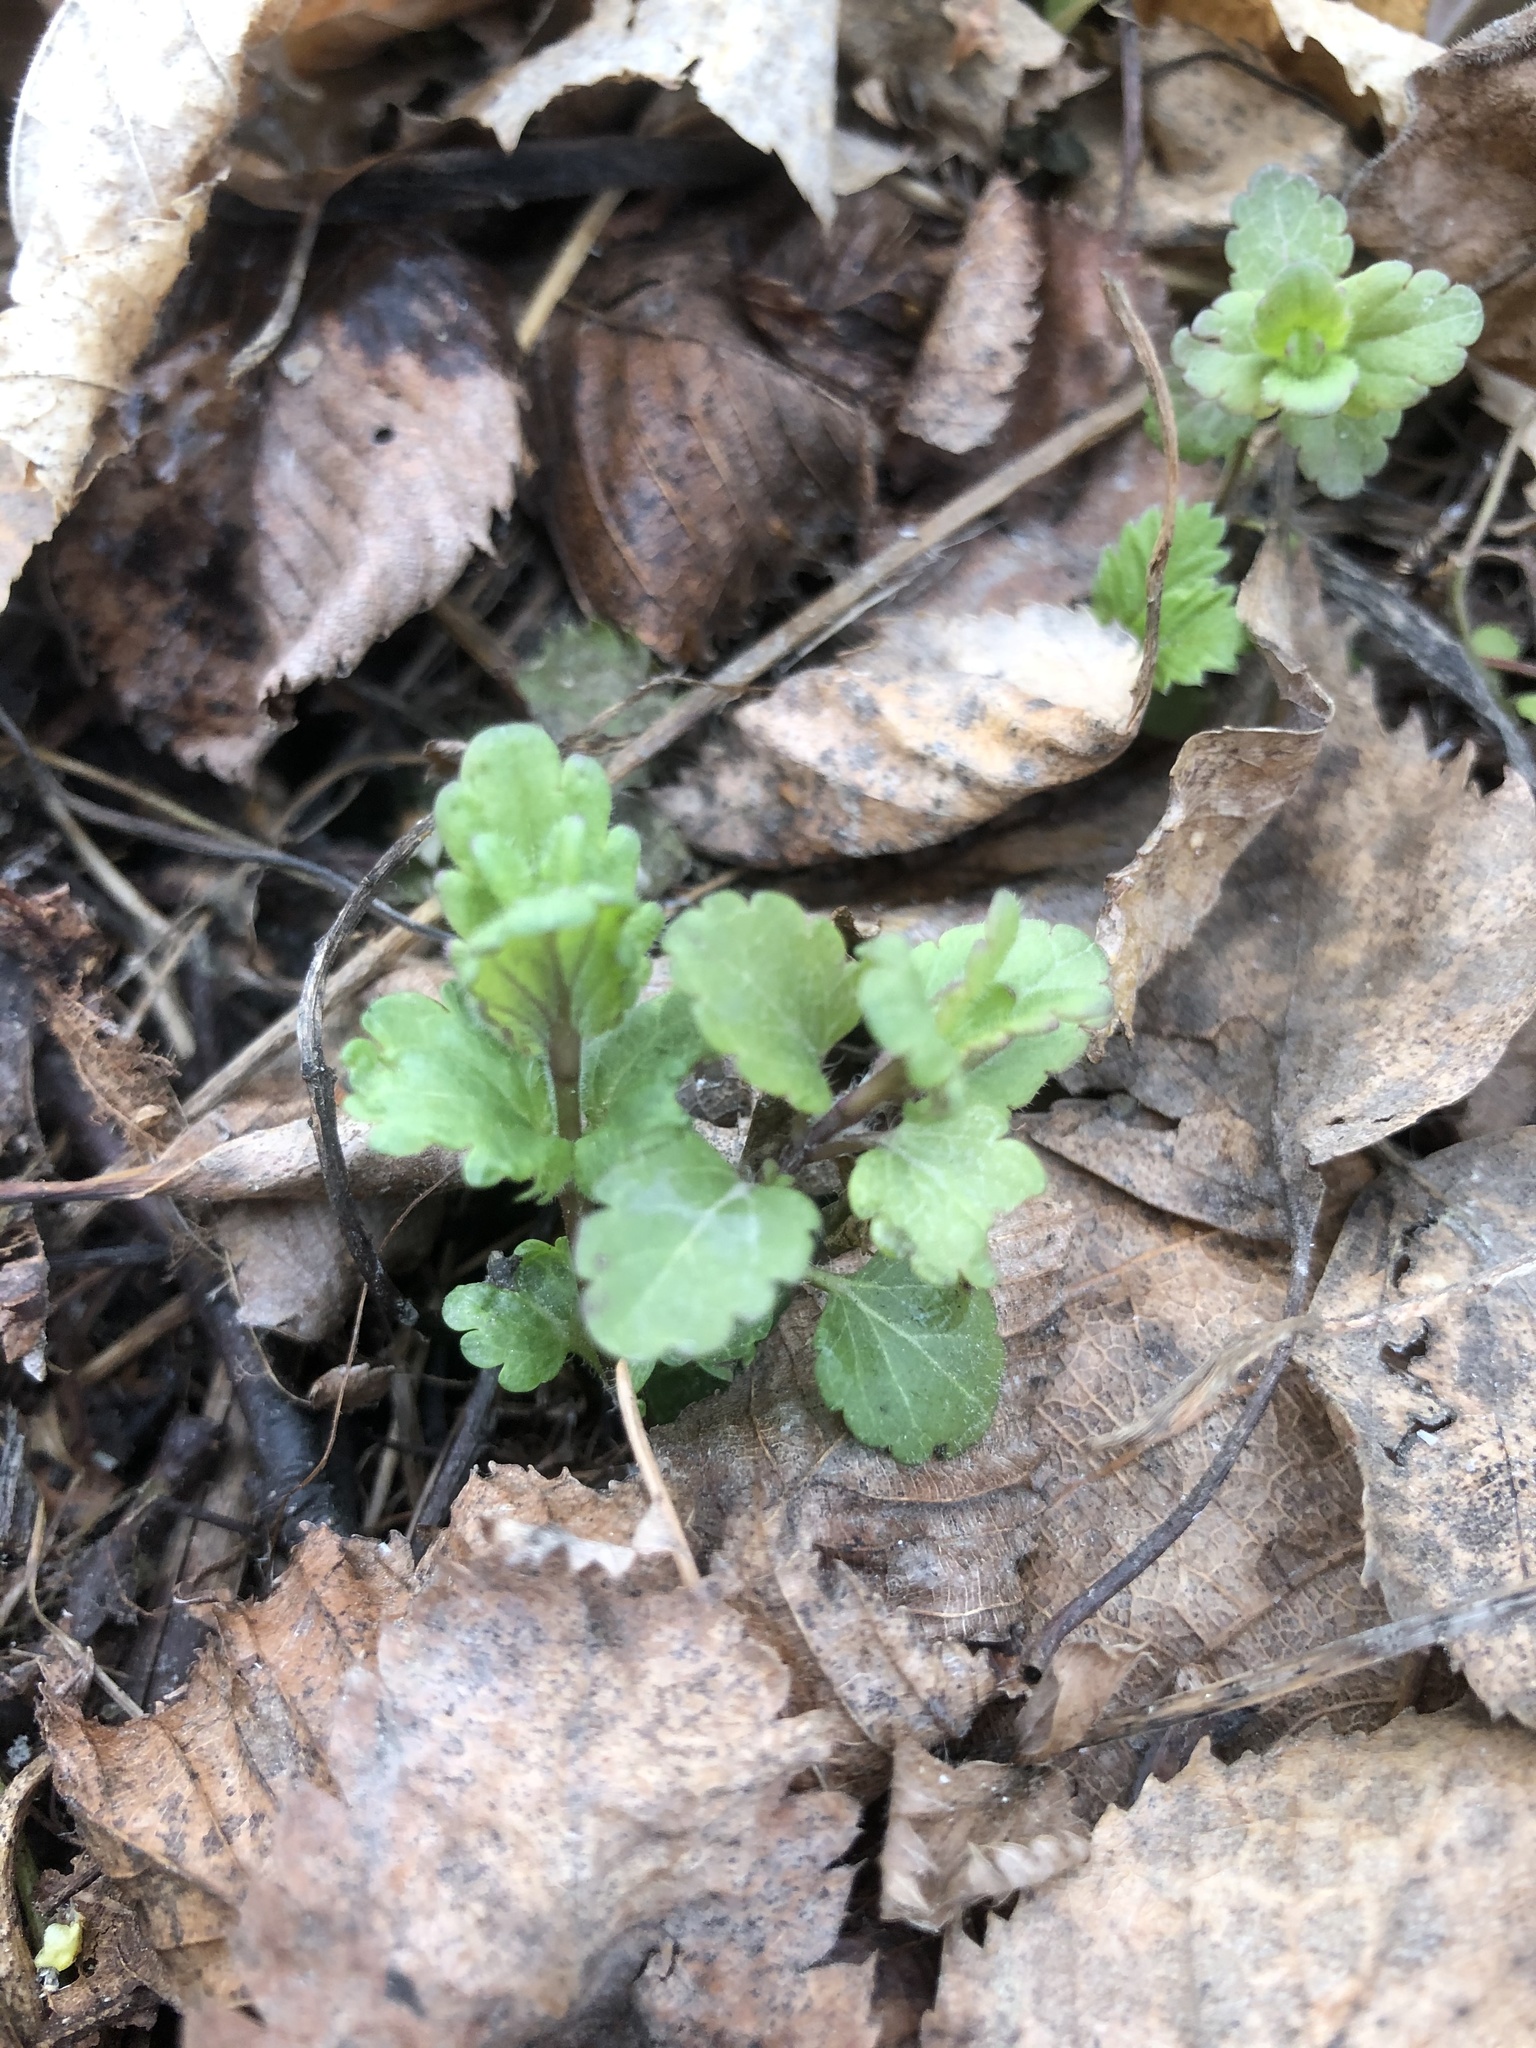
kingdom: Plantae
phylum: Tracheophyta
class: Magnoliopsida
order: Lamiales
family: Plantaginaceae
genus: Veronica
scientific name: Veronica chamaedrys
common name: Germander speedwell
